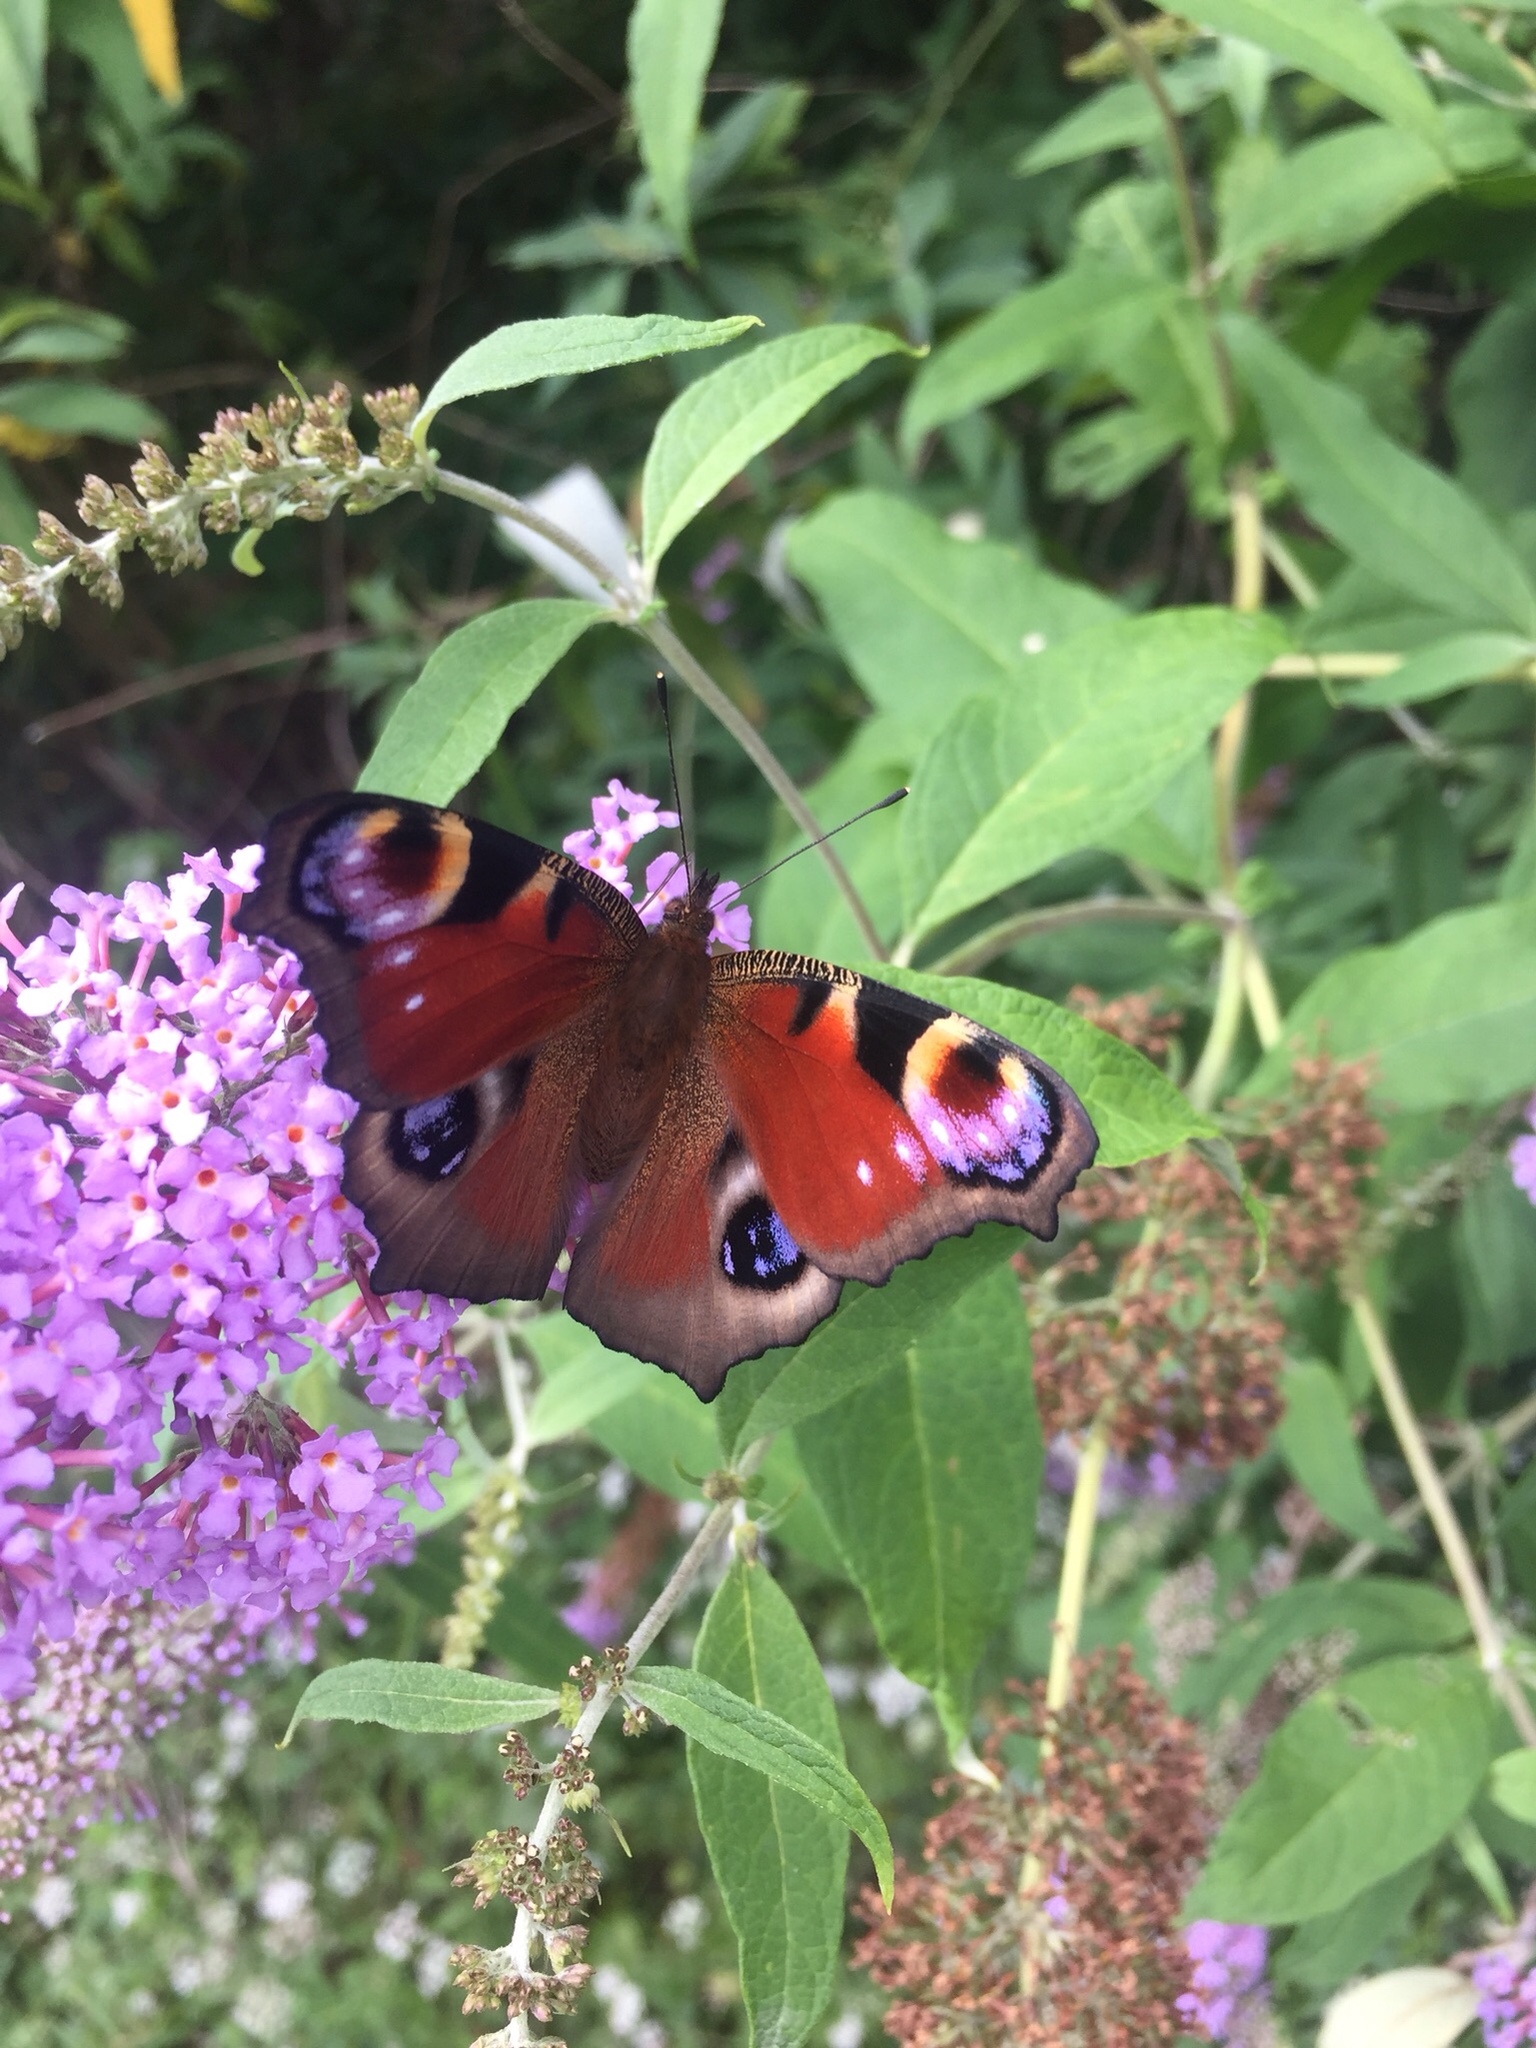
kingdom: Animalia
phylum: Arthropoda
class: Insecta
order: Lepidoptera
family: Nymphalidae
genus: Aglais
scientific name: Aglais io
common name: Peacock
